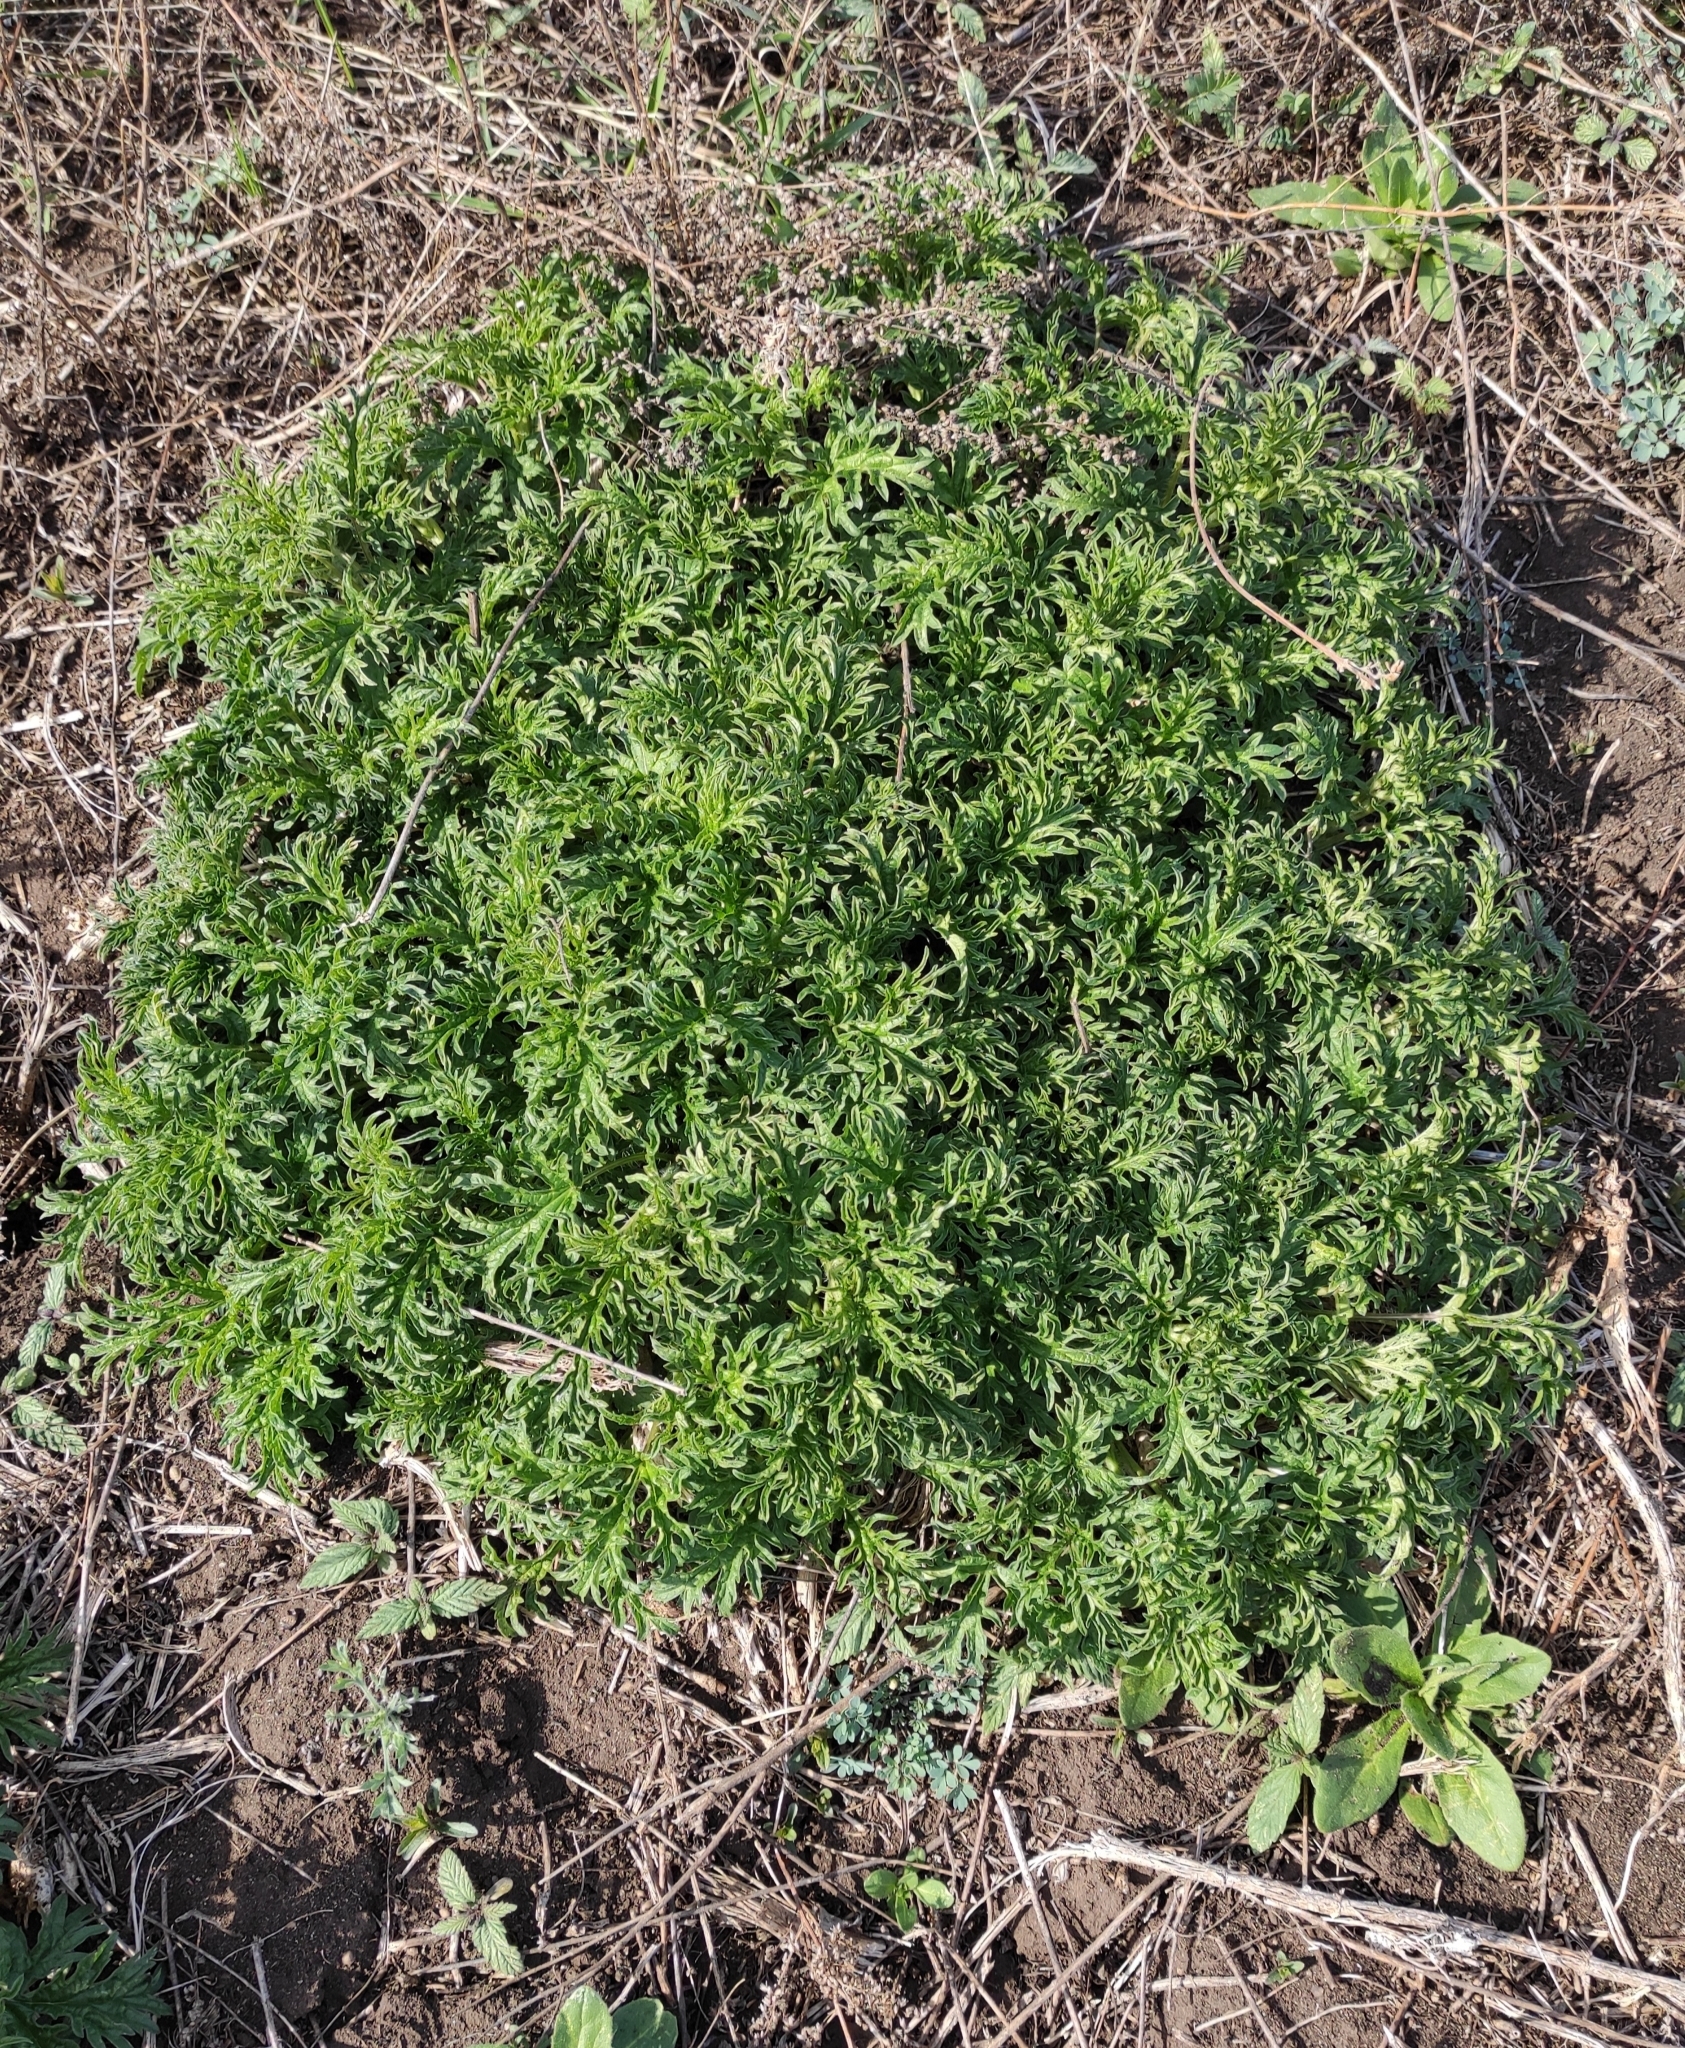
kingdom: Plantae
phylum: Tracheophyta
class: Magnoliopsida
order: Rosales
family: Urticaceae
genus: Urtica
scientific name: Urtica cannabina
